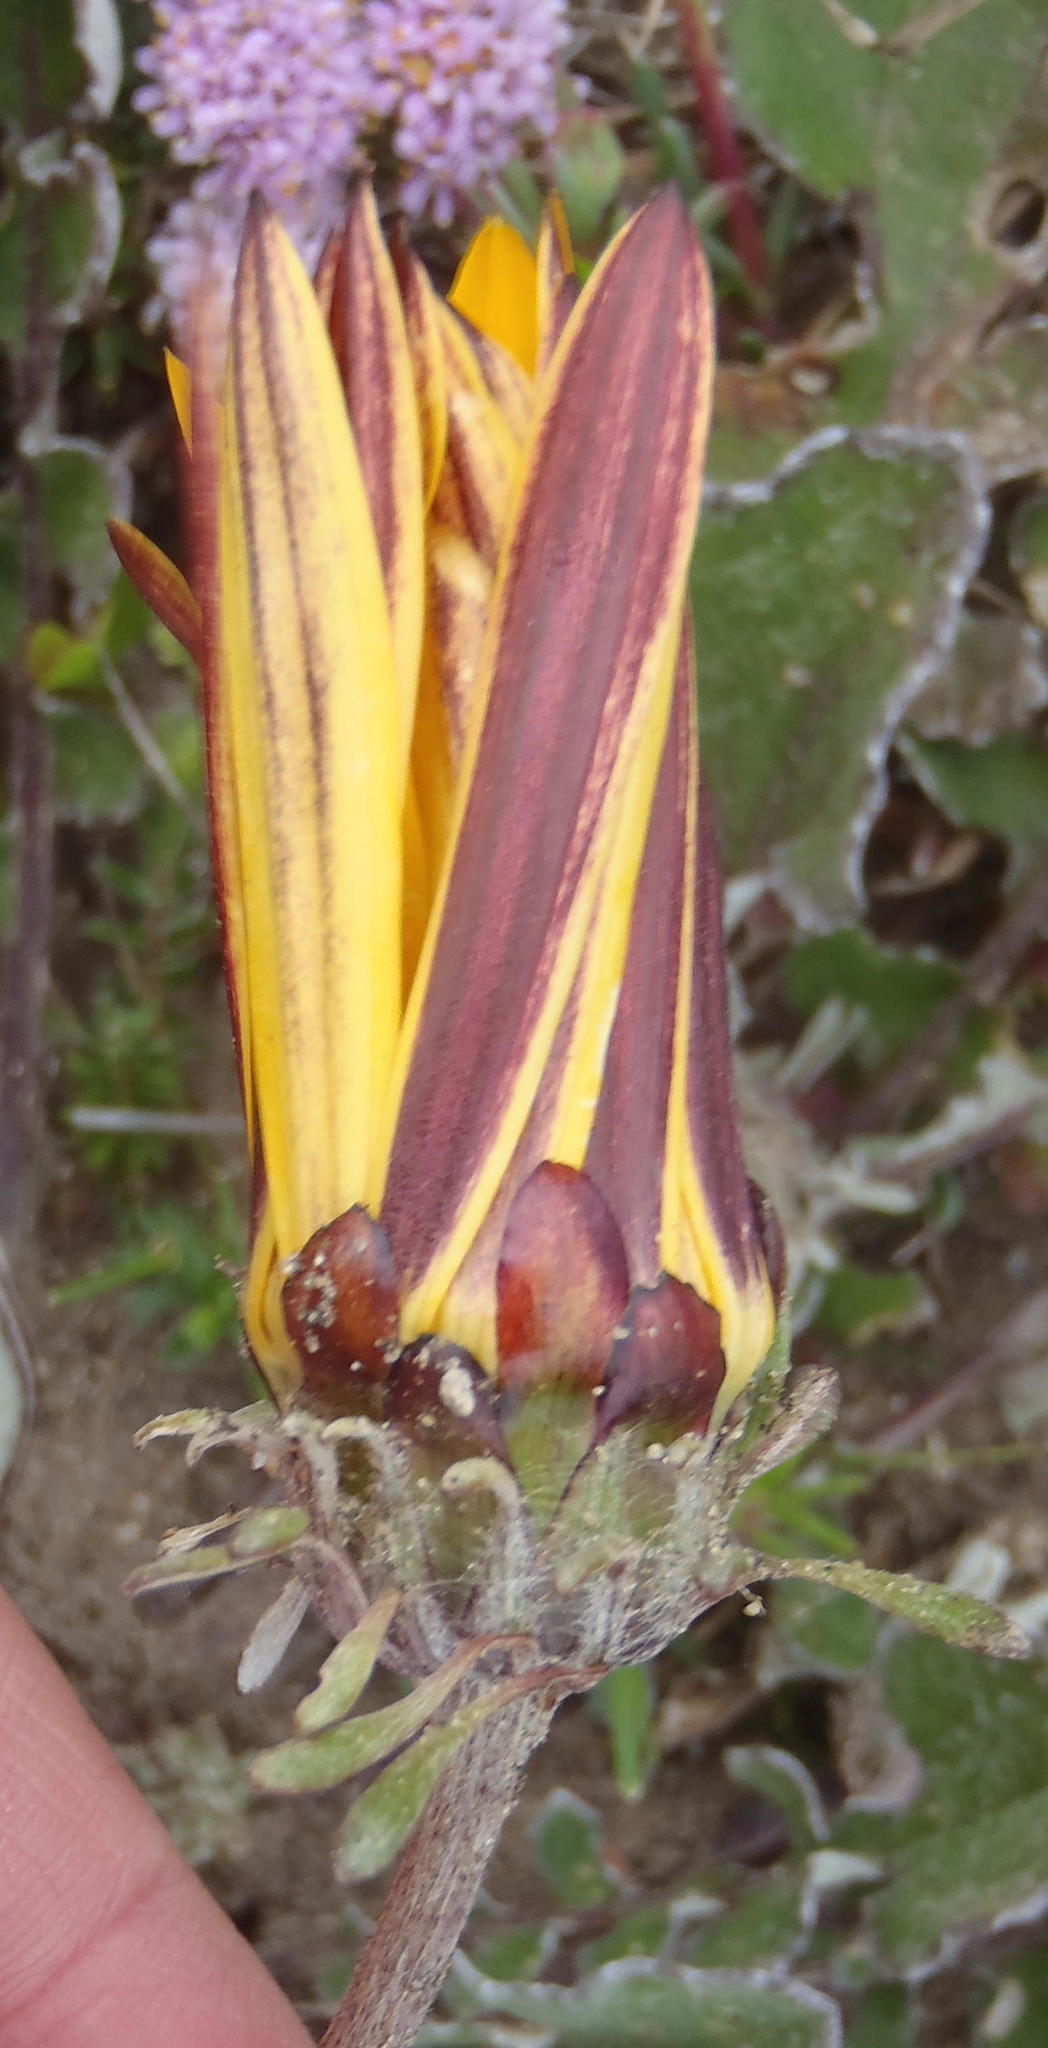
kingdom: Plantae
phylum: Tracheophyta
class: Magnoliopsida
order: Asterales
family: Asteraceae
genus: Arctotis
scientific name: Arctotis acaulis
